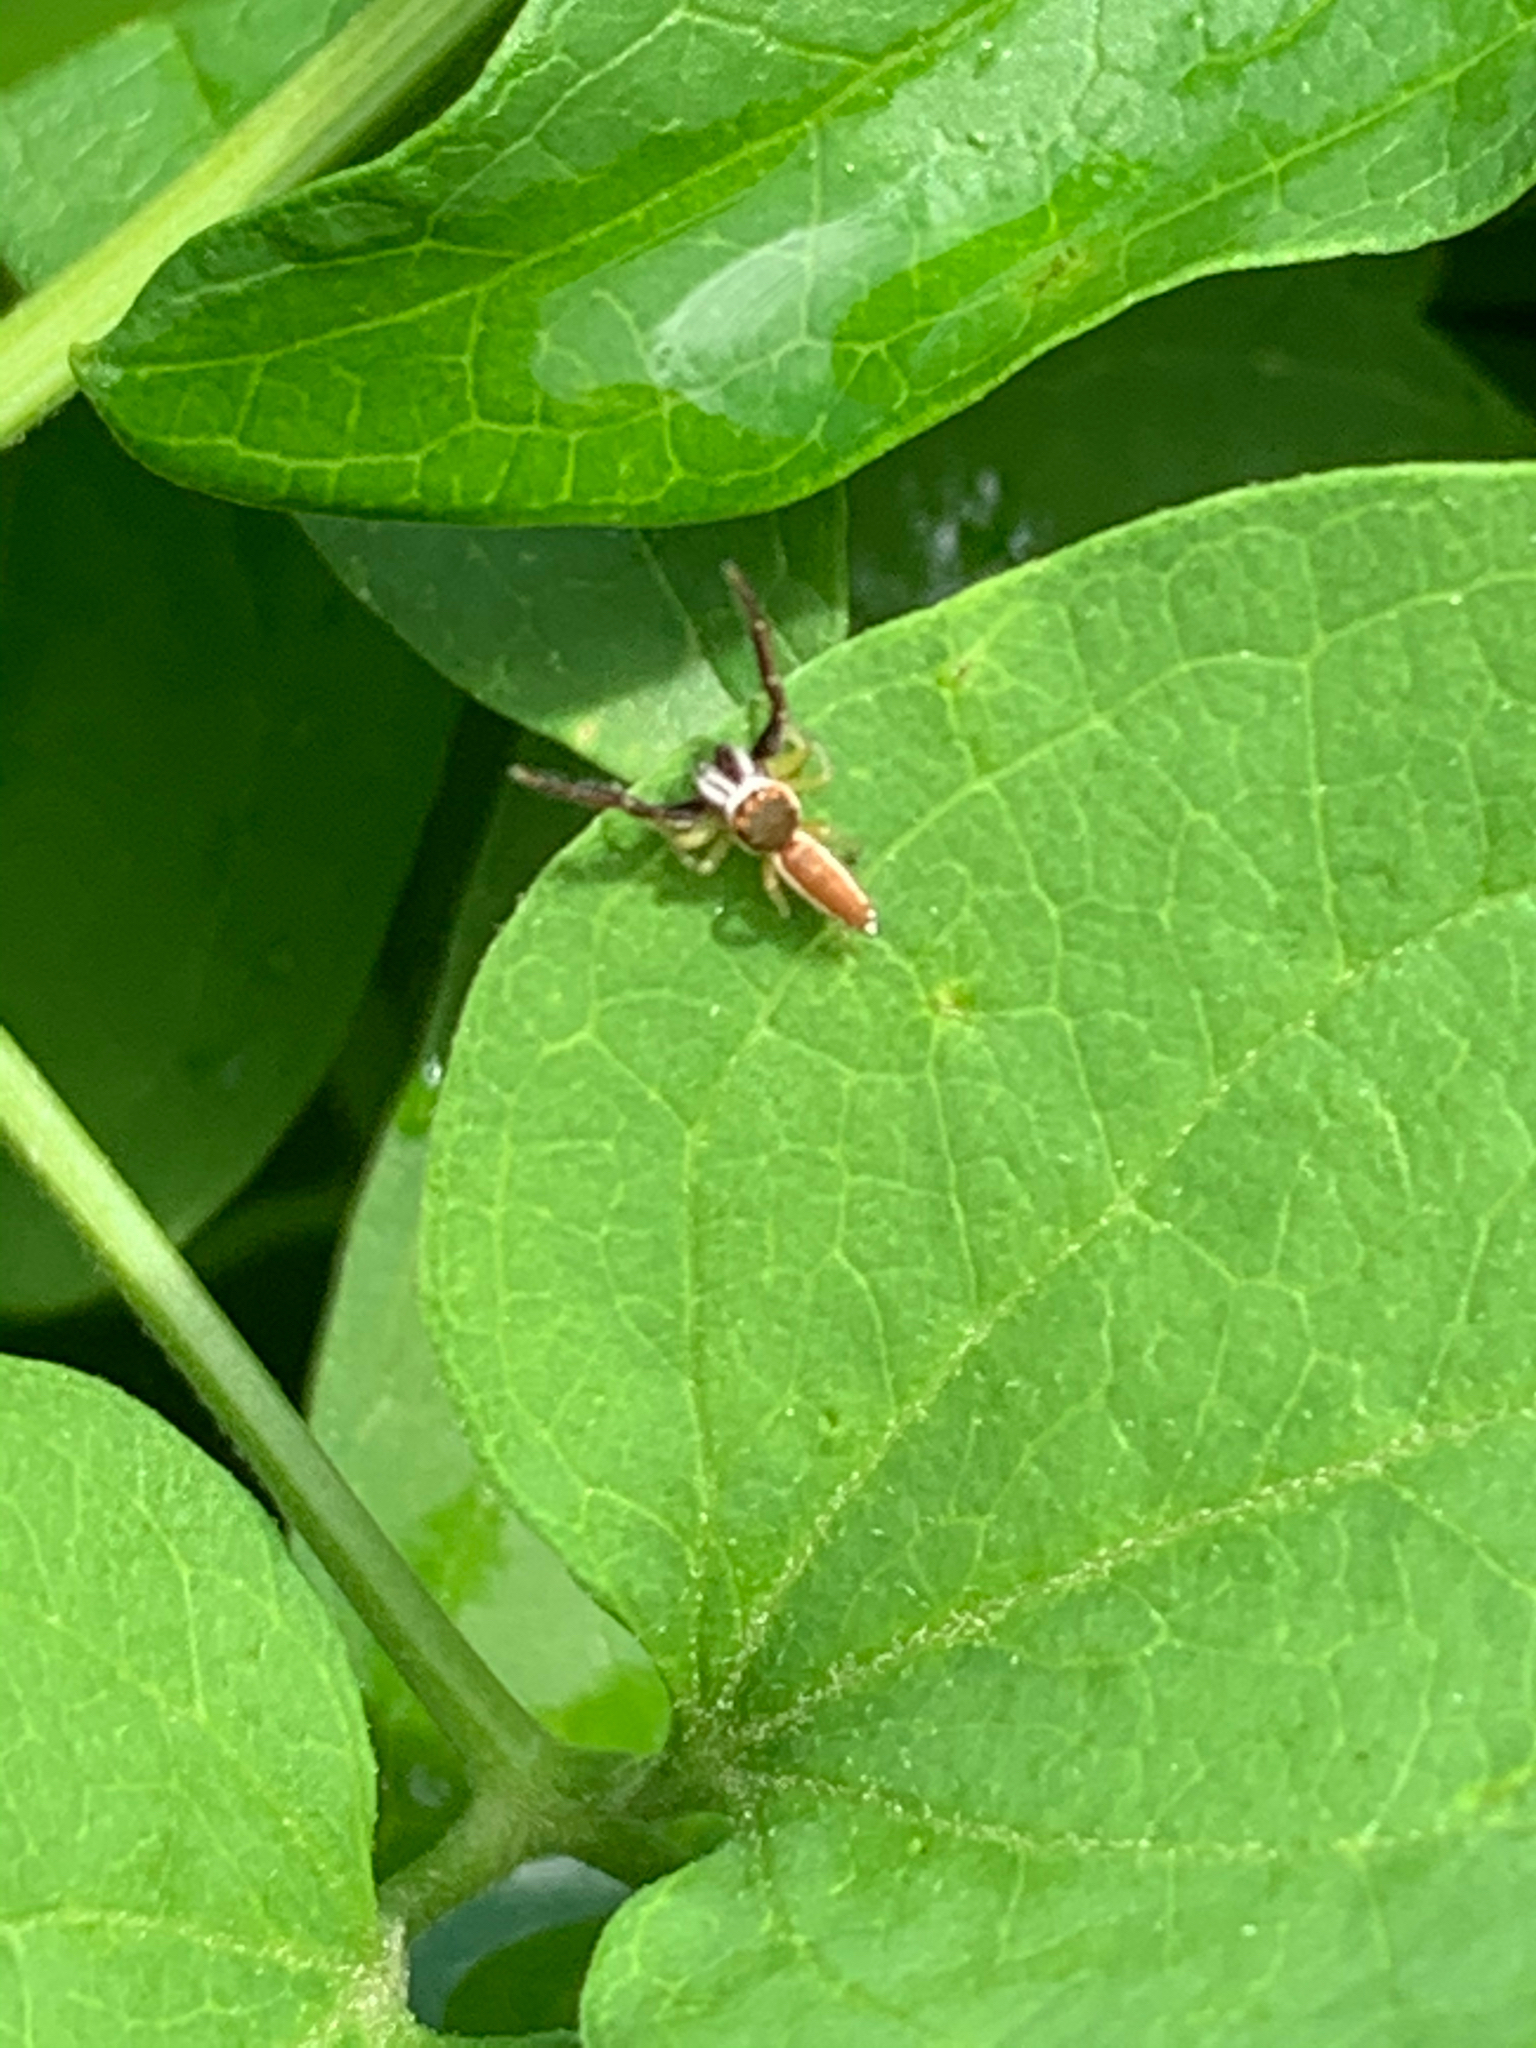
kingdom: Animalia
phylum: Arthropoda
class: Arachnida
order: Araneae
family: Salticidae
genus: Hentzia
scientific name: Hentzia palmarum
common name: Common hentz jumping spider
